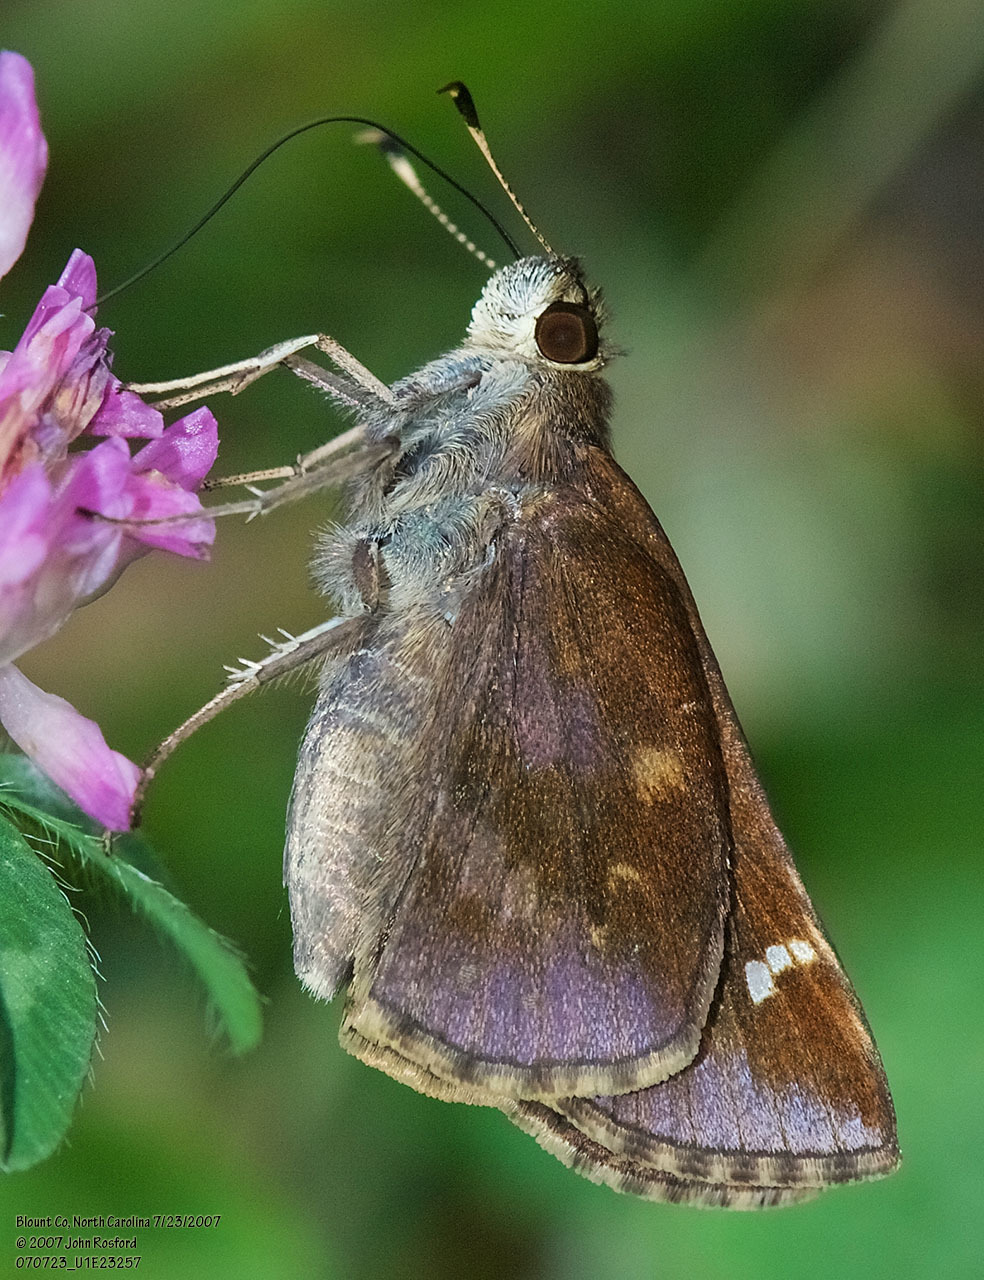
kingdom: Animalia
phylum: Arthropoda
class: Insecta
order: Lepidoptera
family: Hesperiidae
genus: Lerema
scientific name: Lerema accius
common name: Clouded skipper
